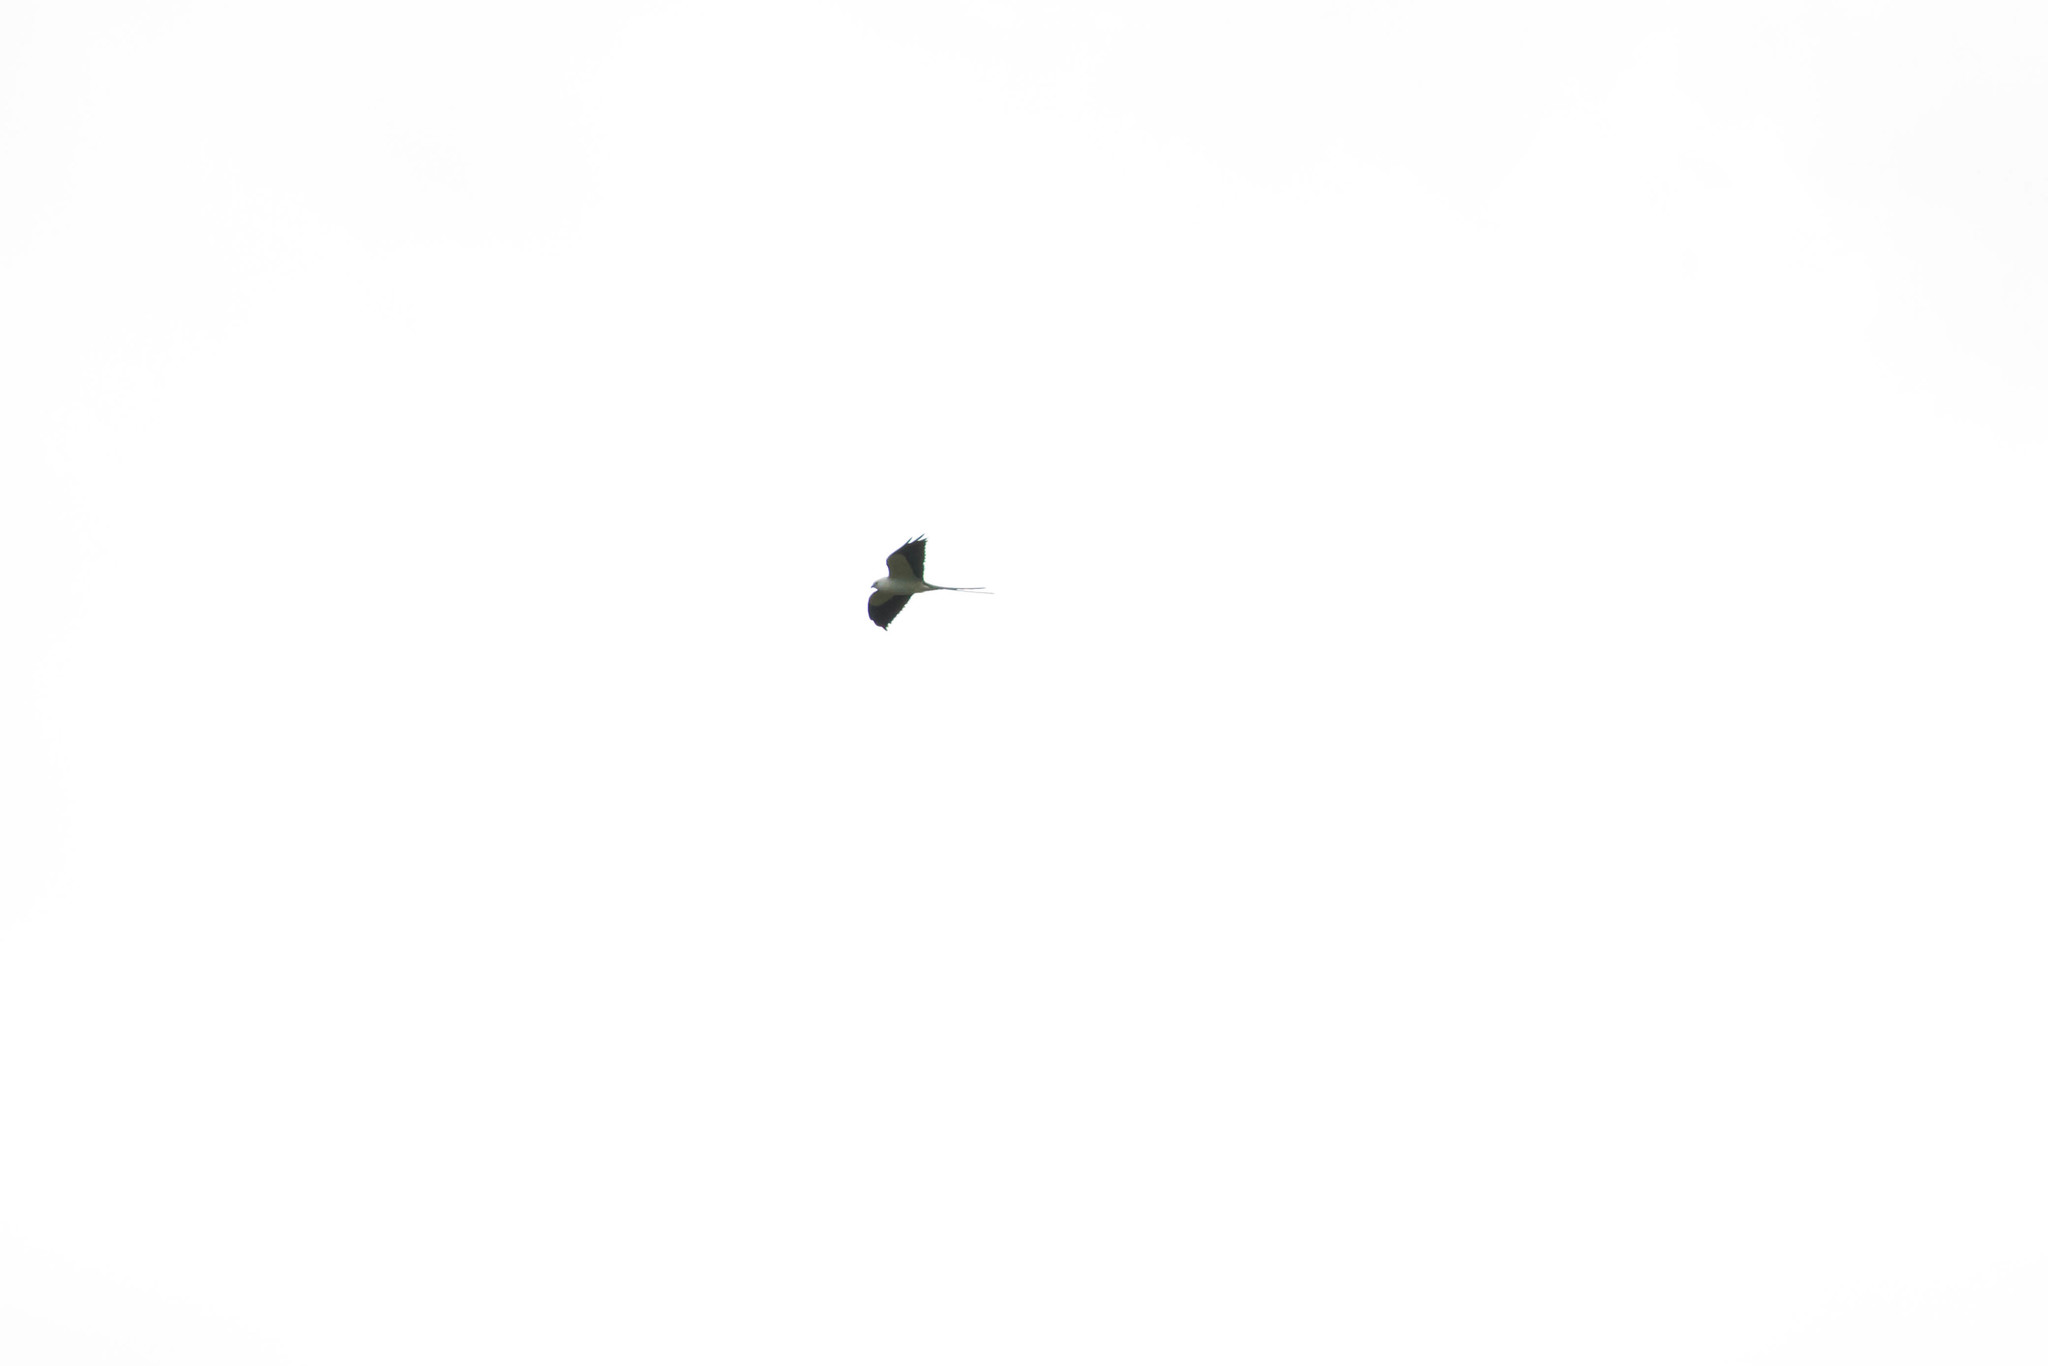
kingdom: Animalia
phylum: Chordata
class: Aves
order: Accipitriformes
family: Accipitridae
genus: Elanoides
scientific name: Elanoides forficatus
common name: Swallow-tailed kite
